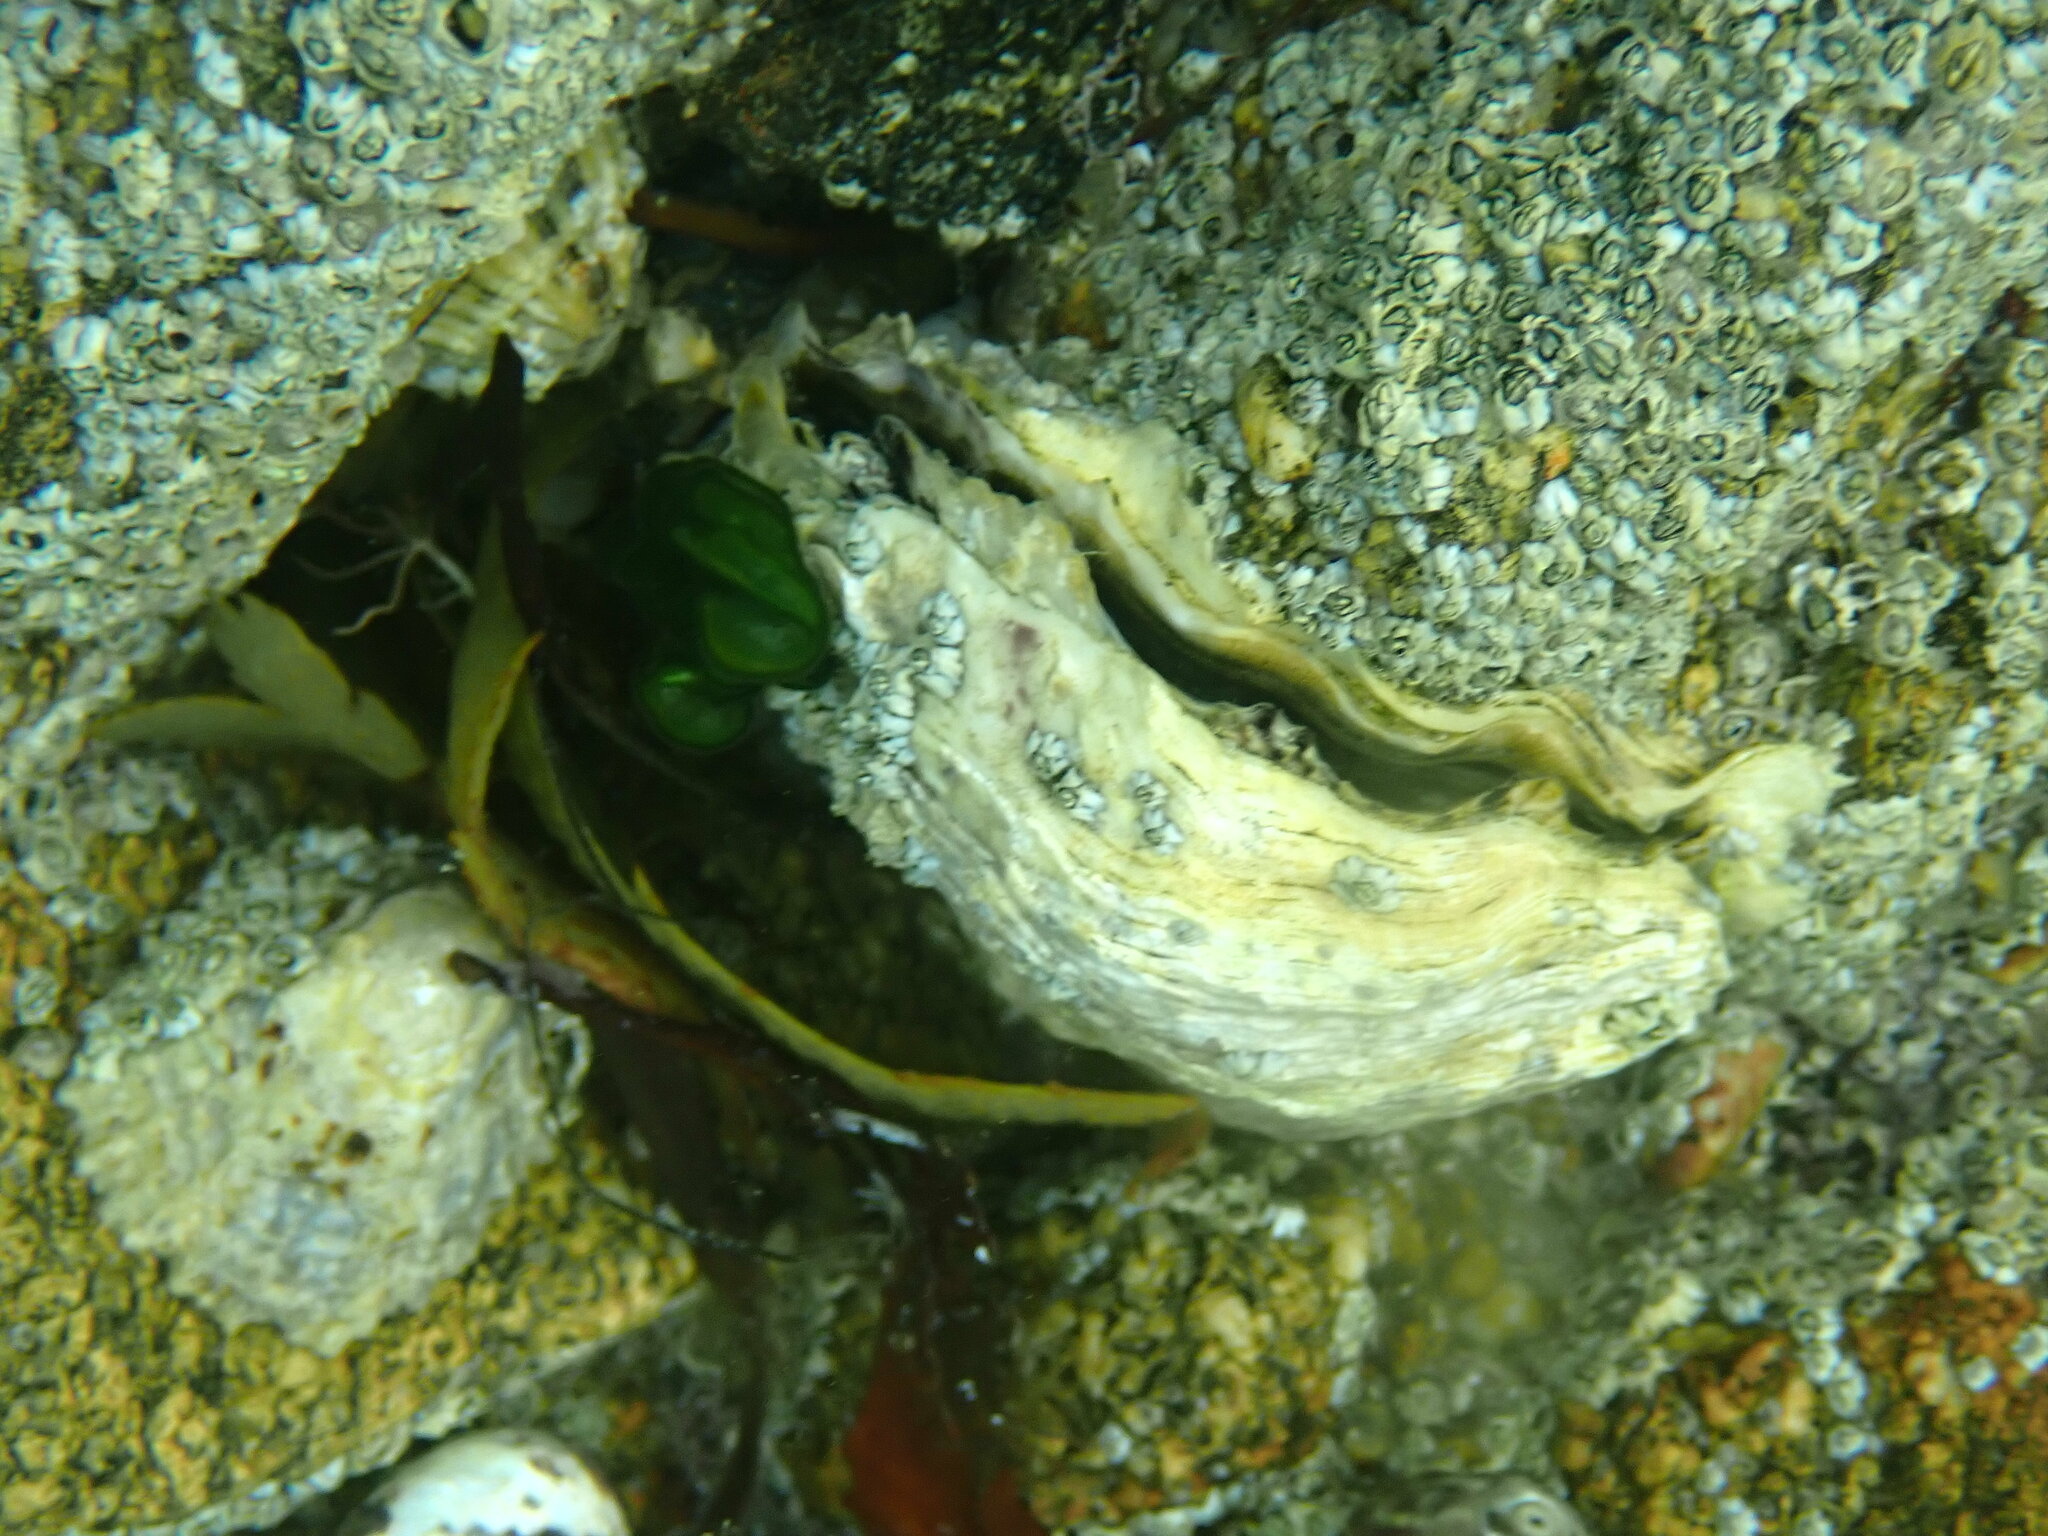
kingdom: Animalia
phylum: Mollusca
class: Bivalvia
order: Ostreida
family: Ostreidae
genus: Magallana
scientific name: Magallana gigas
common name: Pacific oyster
